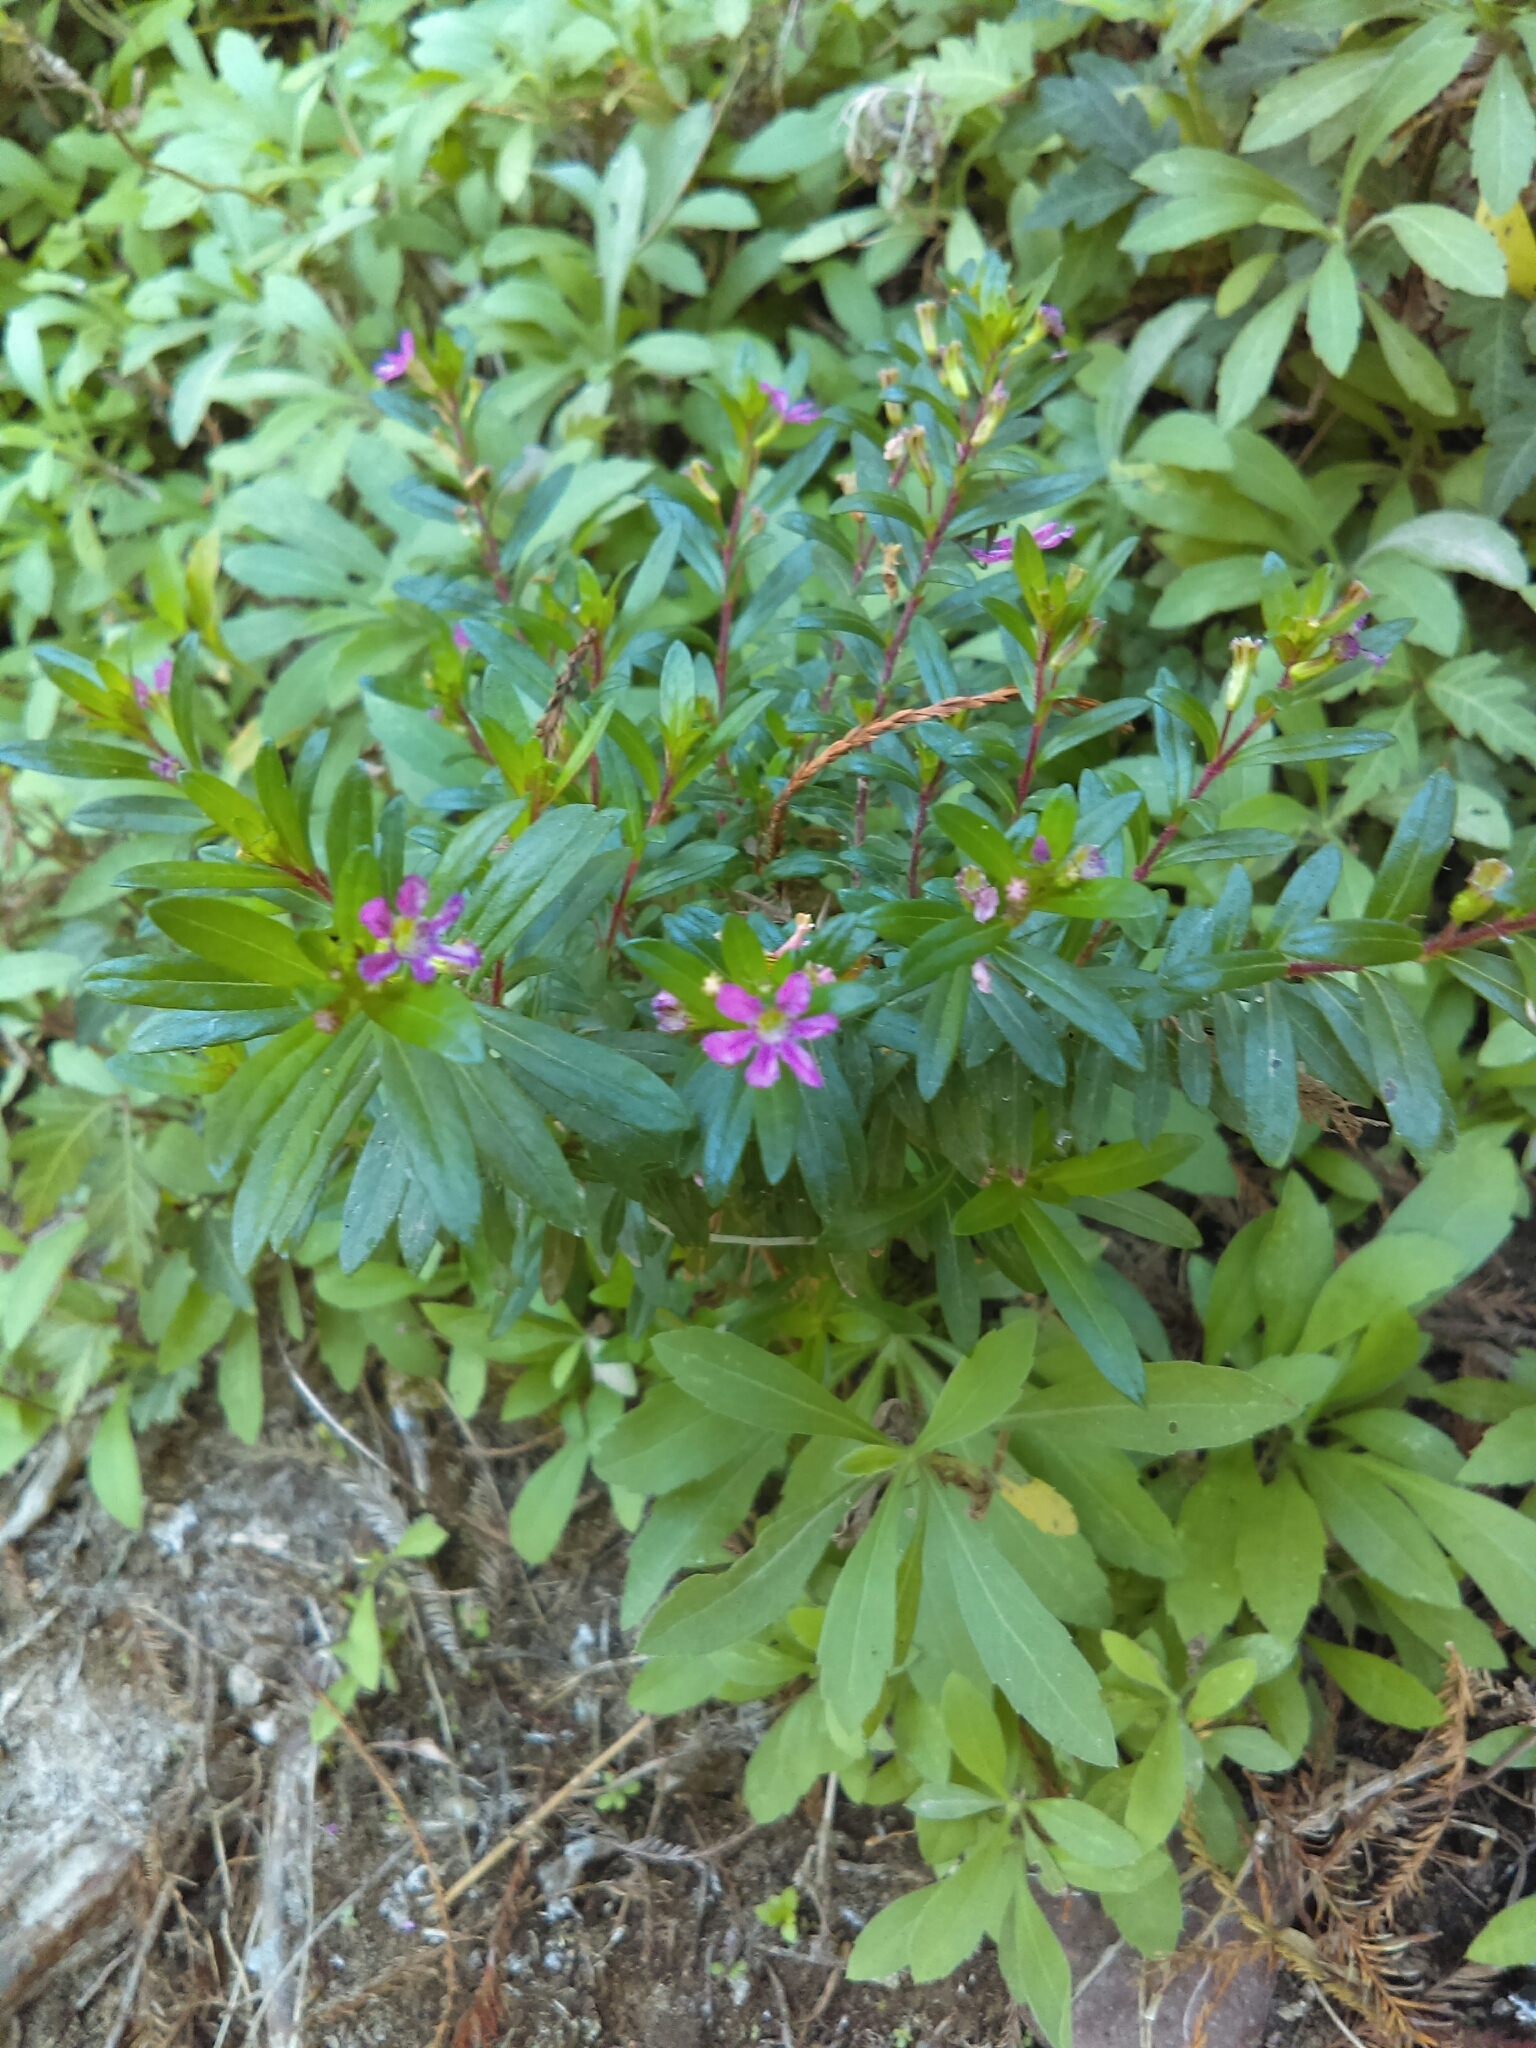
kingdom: Plantae
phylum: Tracheophyta
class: Magnoliopsida
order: Myrtales
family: Lythraceae
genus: Cuphea
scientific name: Cuphea hyssopifolia
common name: False heather
